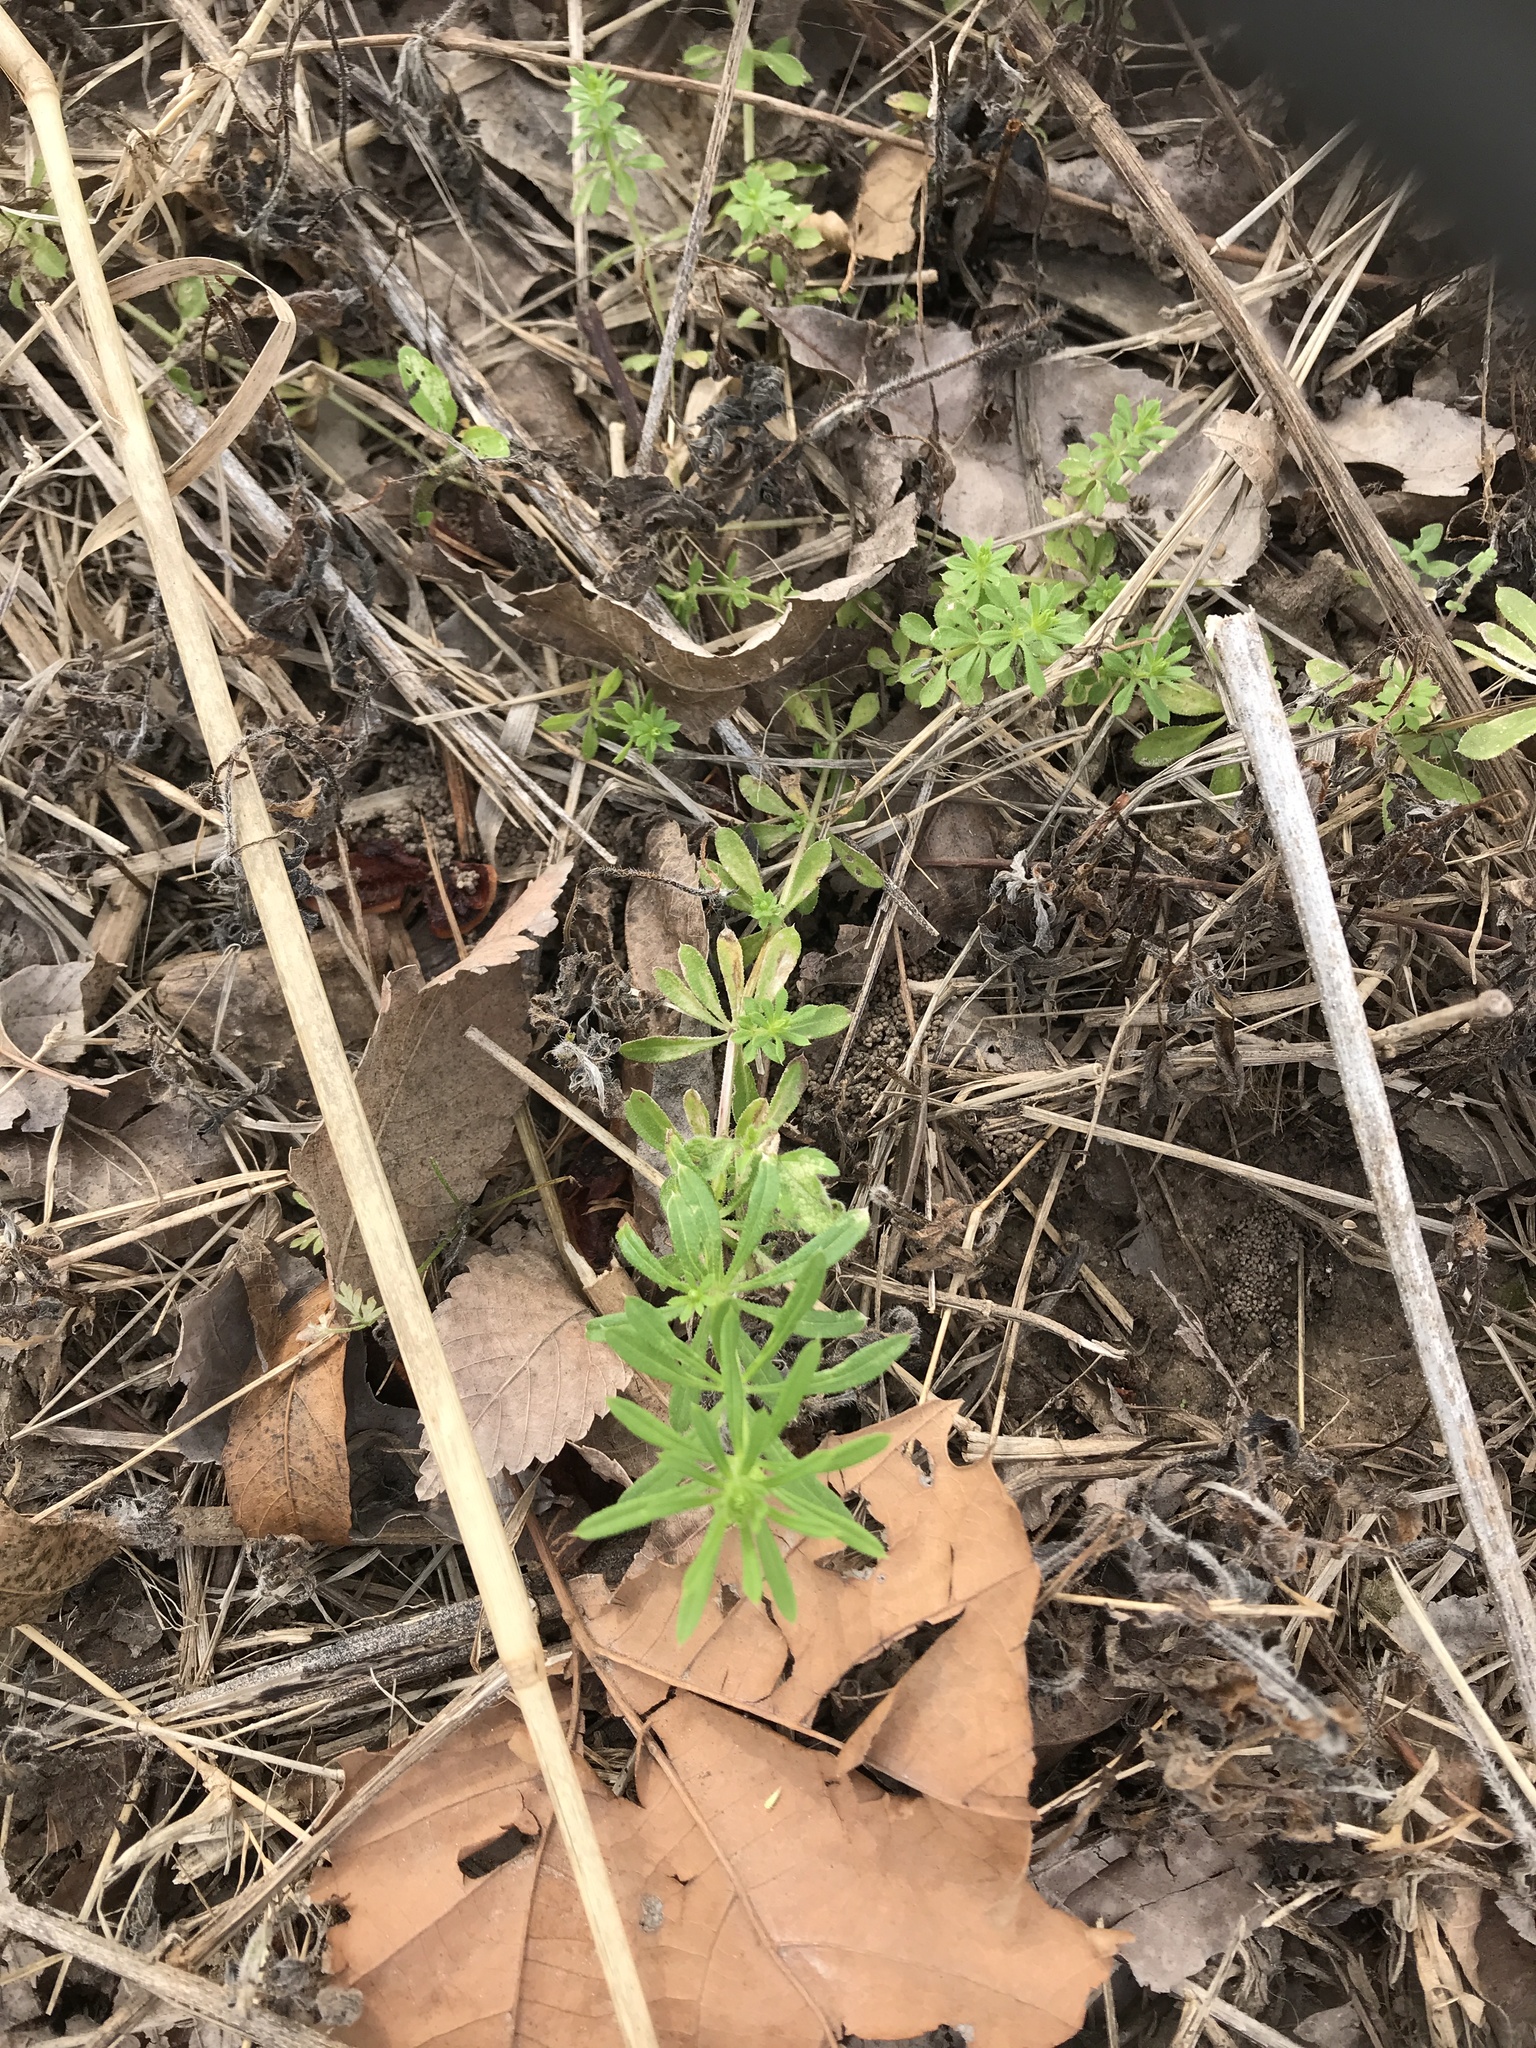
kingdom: Plantae
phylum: Tracheophyta
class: Magnoliopsida
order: Gentianales
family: Rubiaceae
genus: Galium
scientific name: Galium aparine
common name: Cleavers
